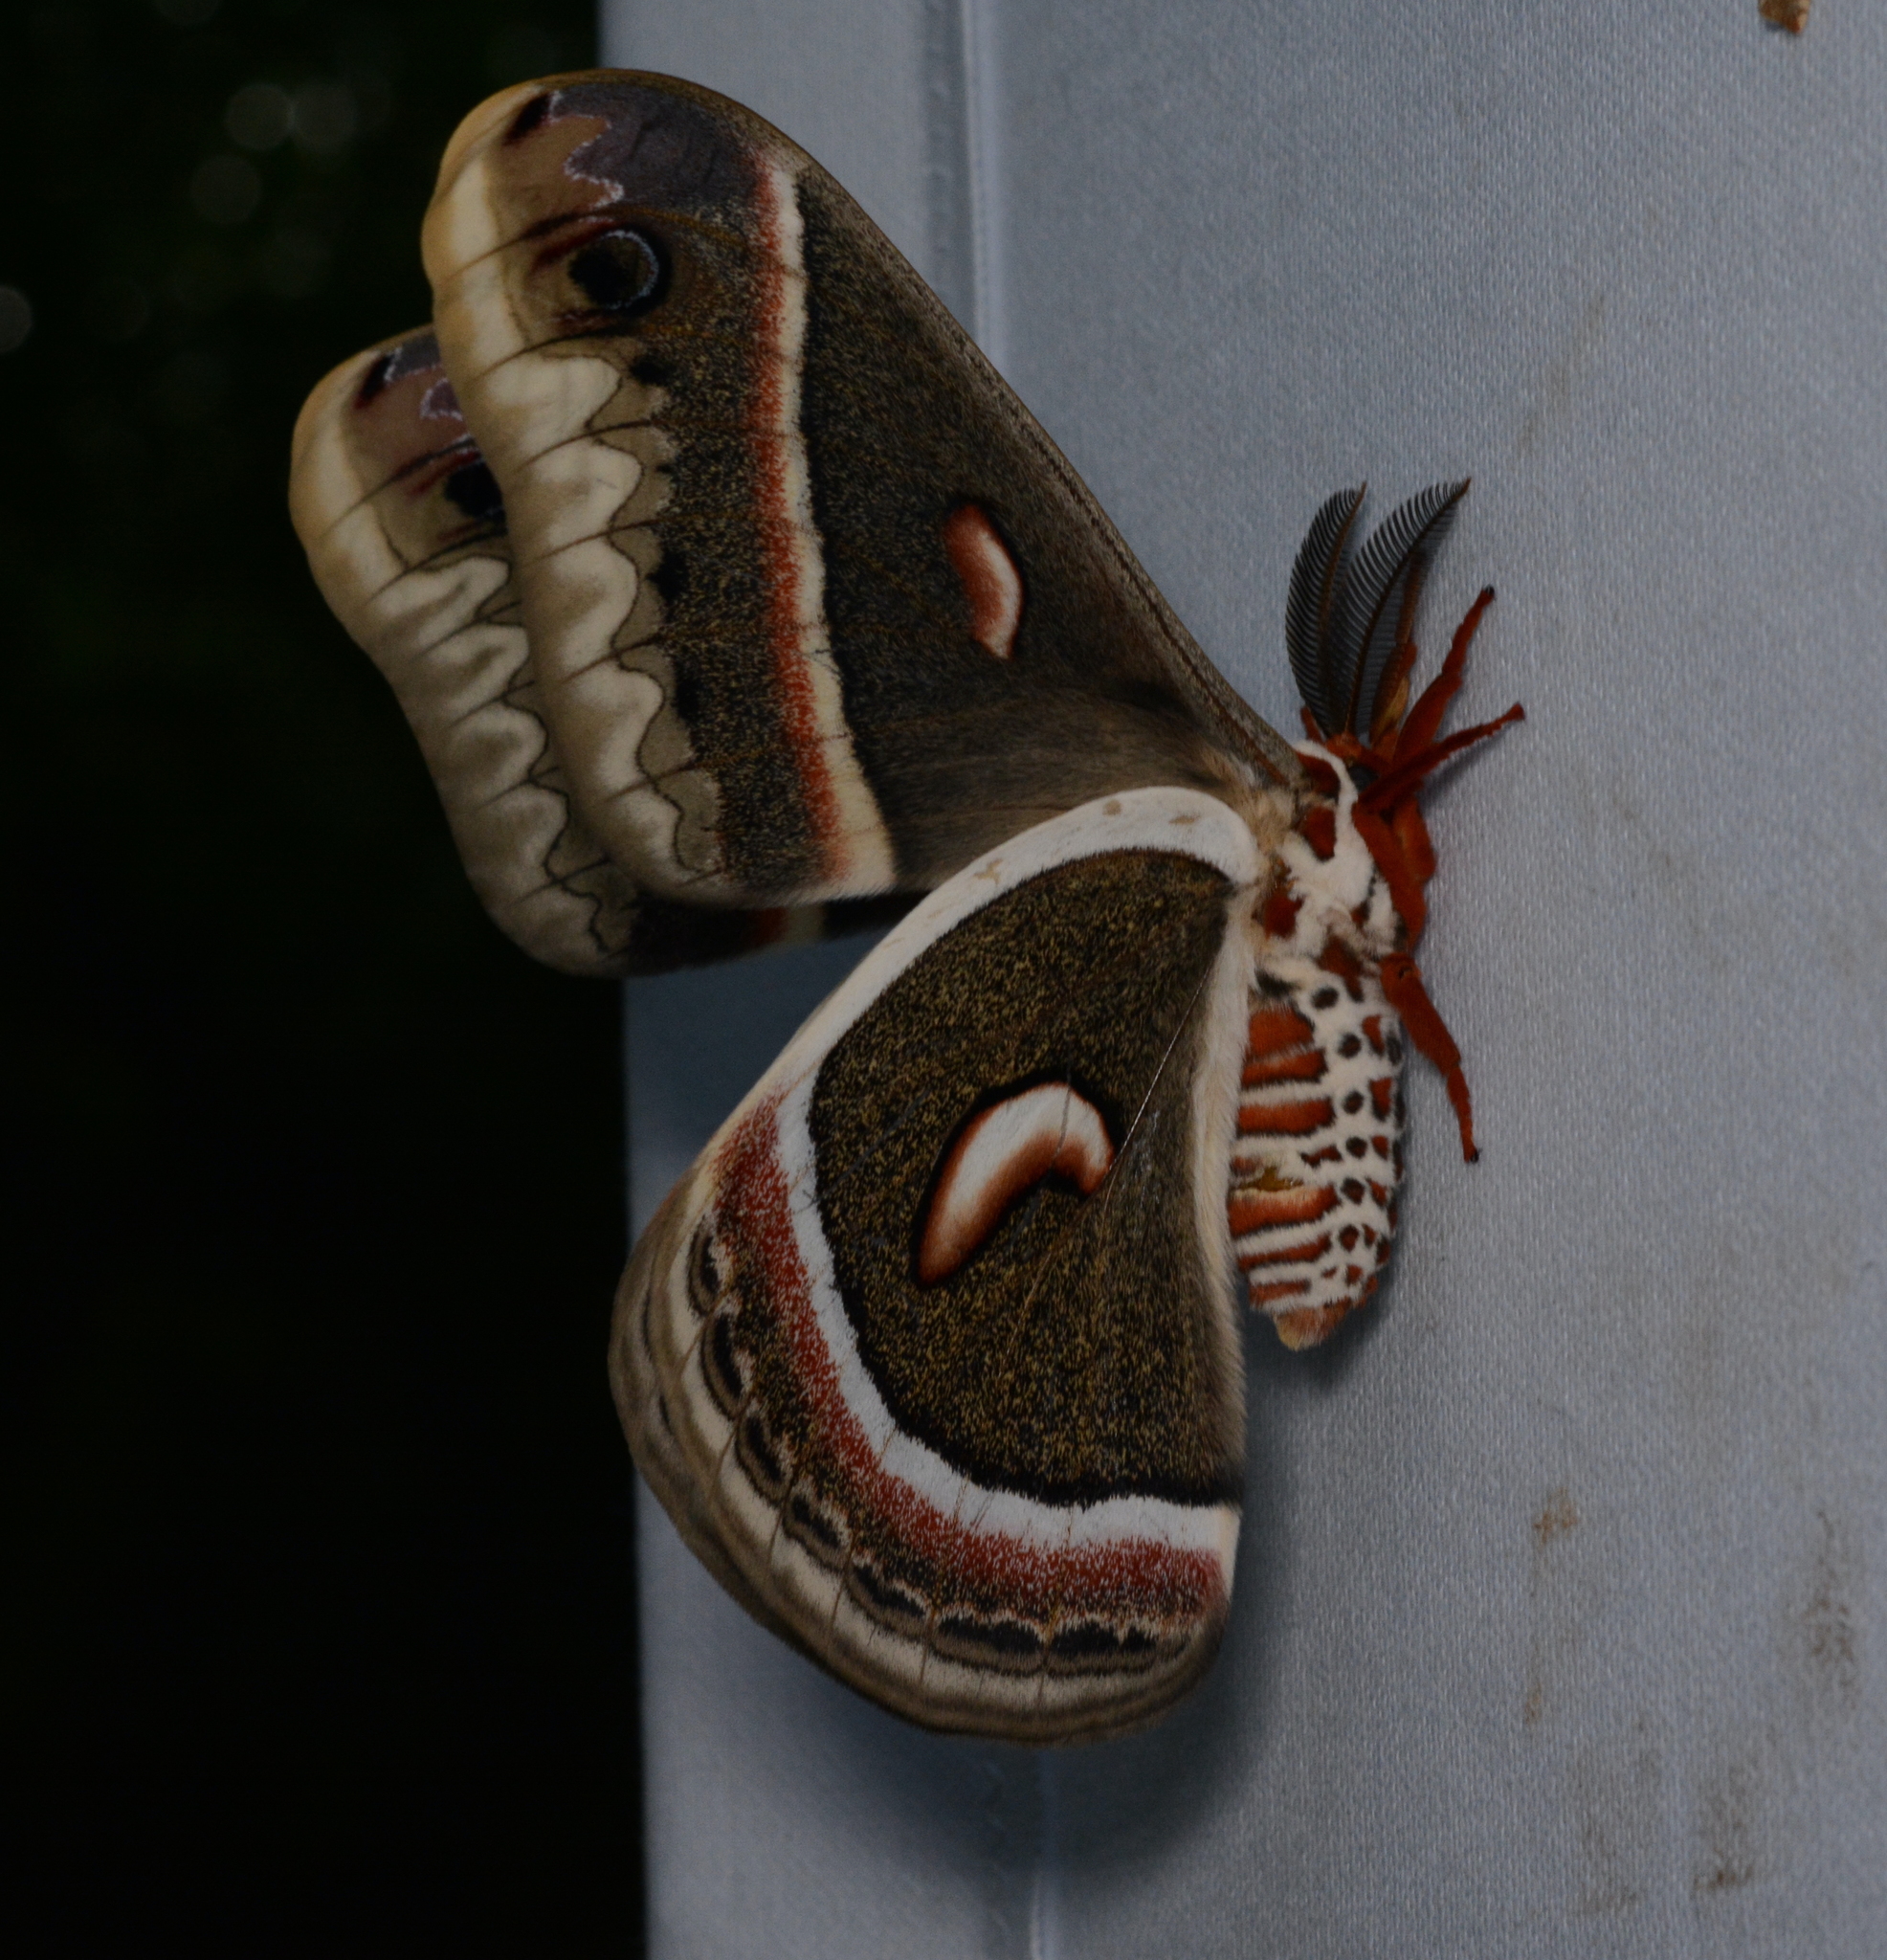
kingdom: Animalia
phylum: Arthropoda
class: Insecta
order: Lepidoptera
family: Saturniidae
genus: Hyalophora
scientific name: Hyalophora cecropia
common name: Cecropia silkmoth
